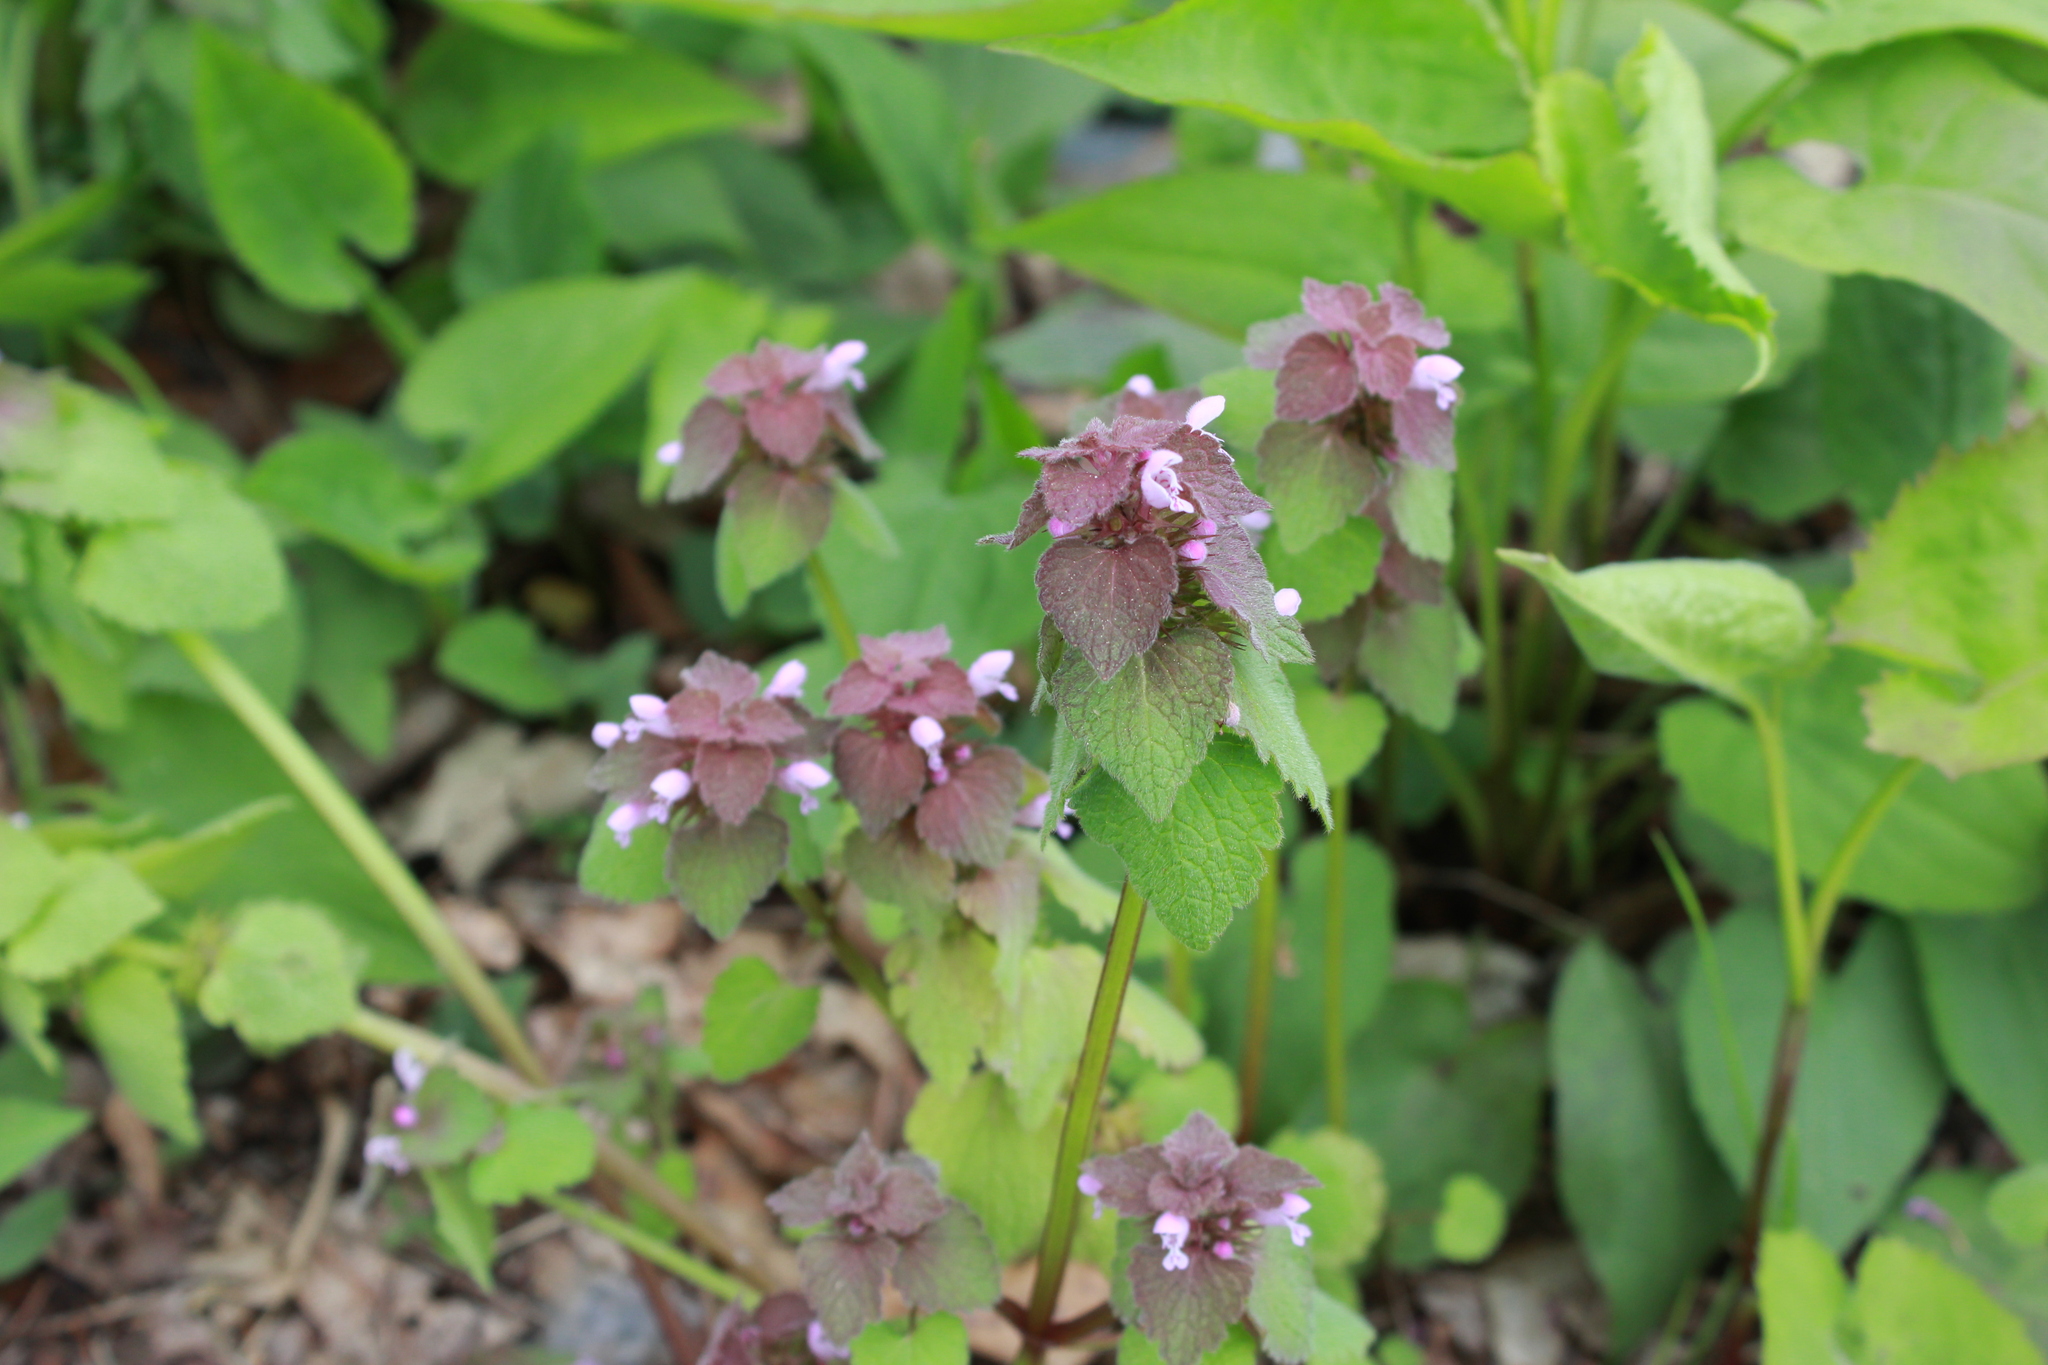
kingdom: Plantae
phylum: Tracheophyta
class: Magnoliopsida
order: Lamiales
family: Lamiaceae
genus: Lamium
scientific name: Lamium purpureum
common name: Red dead-nettle
